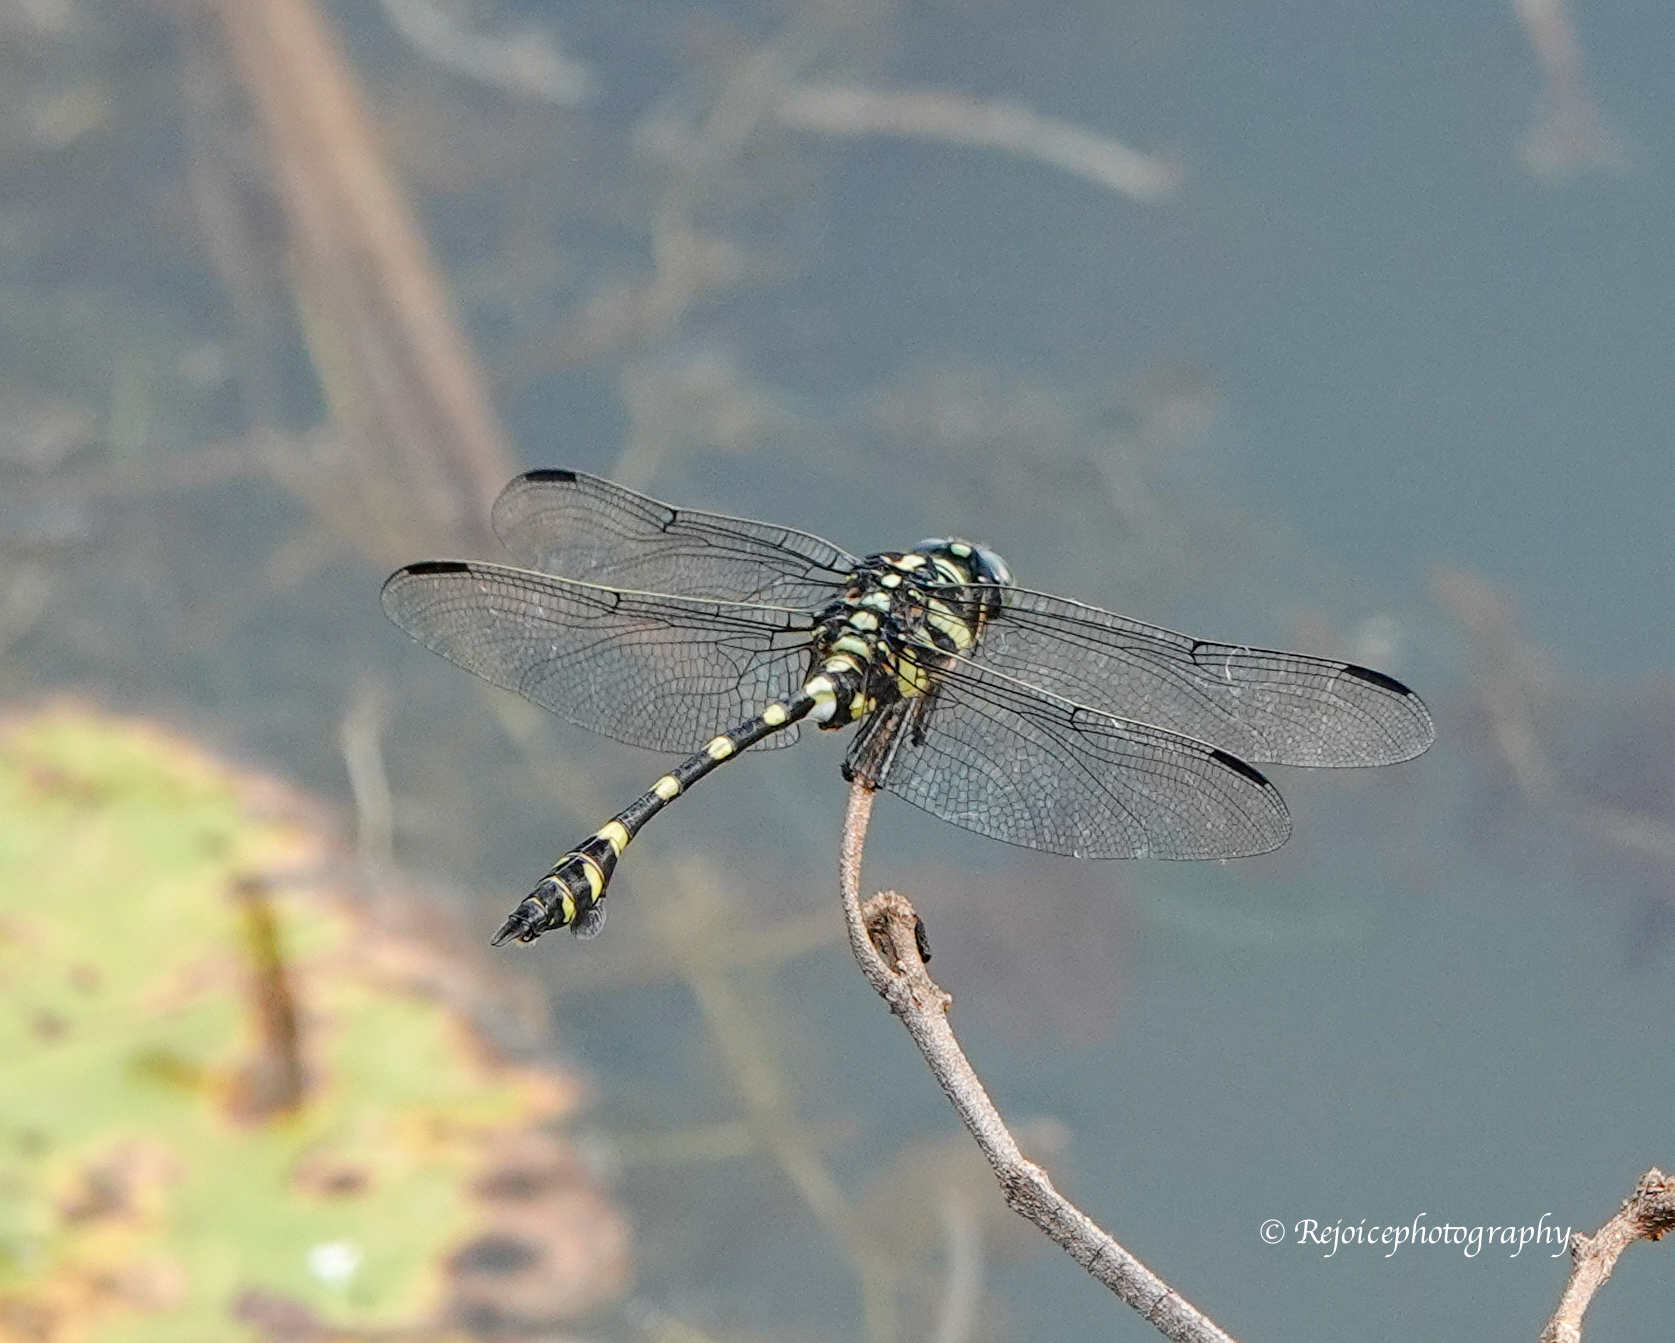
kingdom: Animalia
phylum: Arthropoda
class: Insecta
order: Odonata
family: Gomphidae
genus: Ictinogomphus
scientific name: Ictinogomphus rapax
